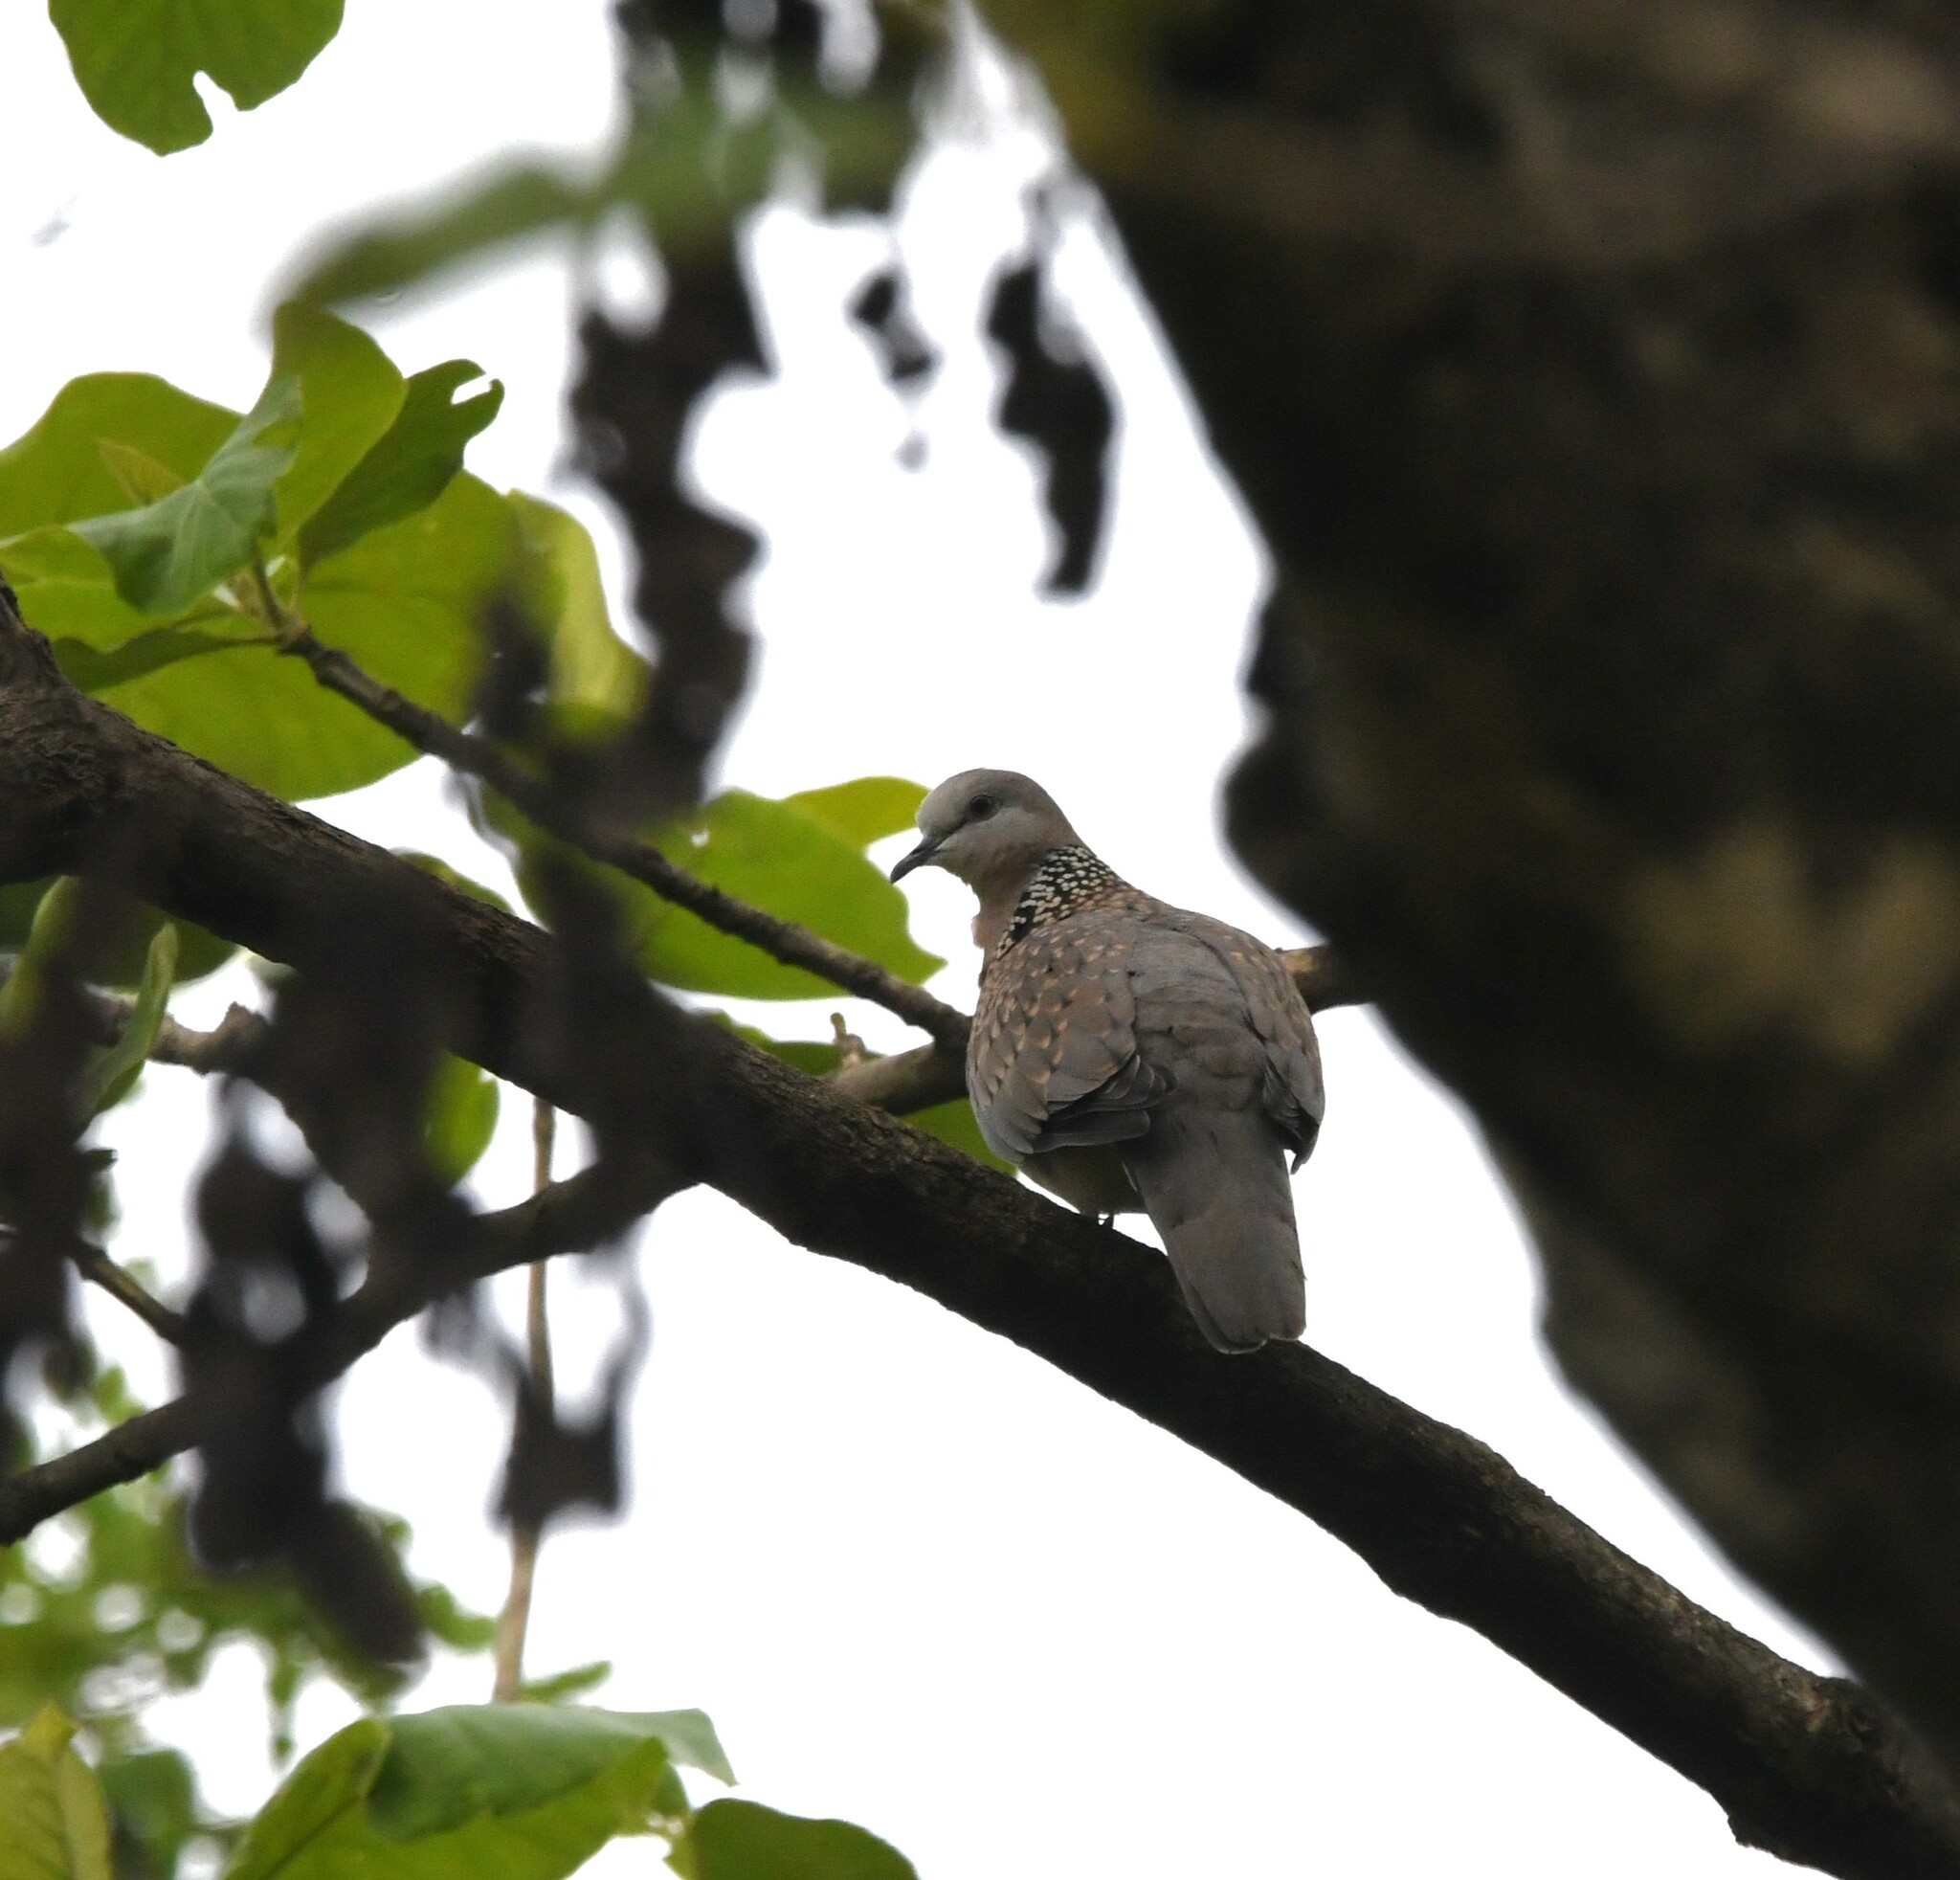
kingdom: Animalia
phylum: Chordata
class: Aves
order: Columbiformes
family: Columbidae
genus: Spilopelia
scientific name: Spilopelia chinensis
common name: Spotted dove
